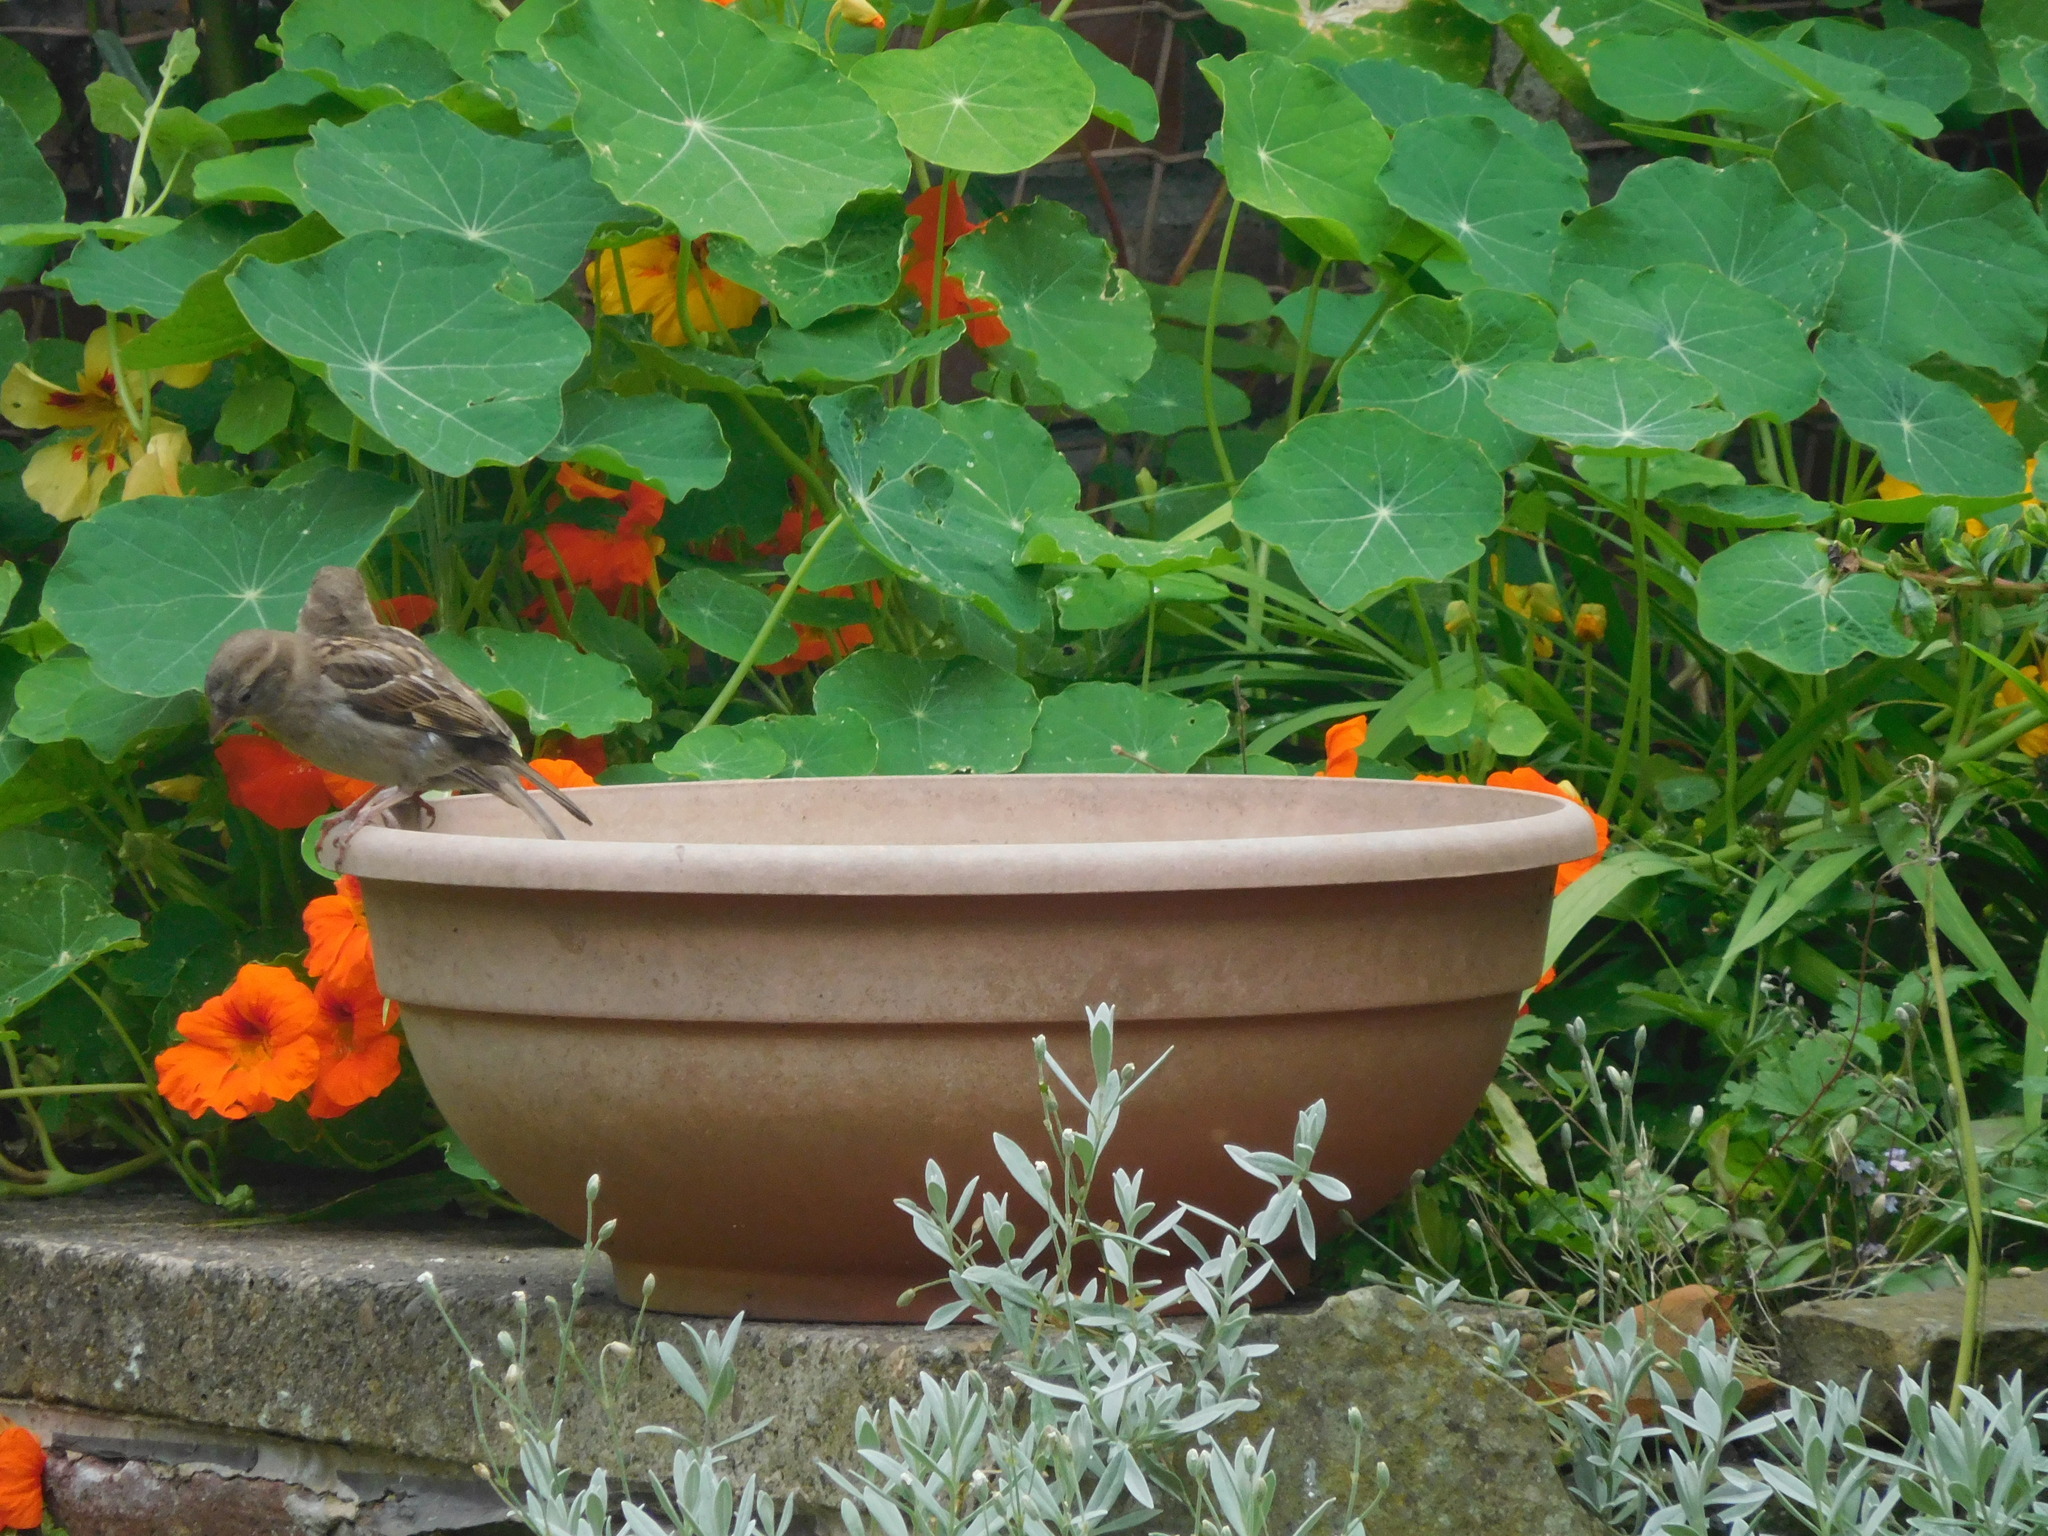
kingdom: Animalia
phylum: Chordata
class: Aves
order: Passeriformes
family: Passeridae
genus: Passer
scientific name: Passer domesticus
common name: House sparrow
